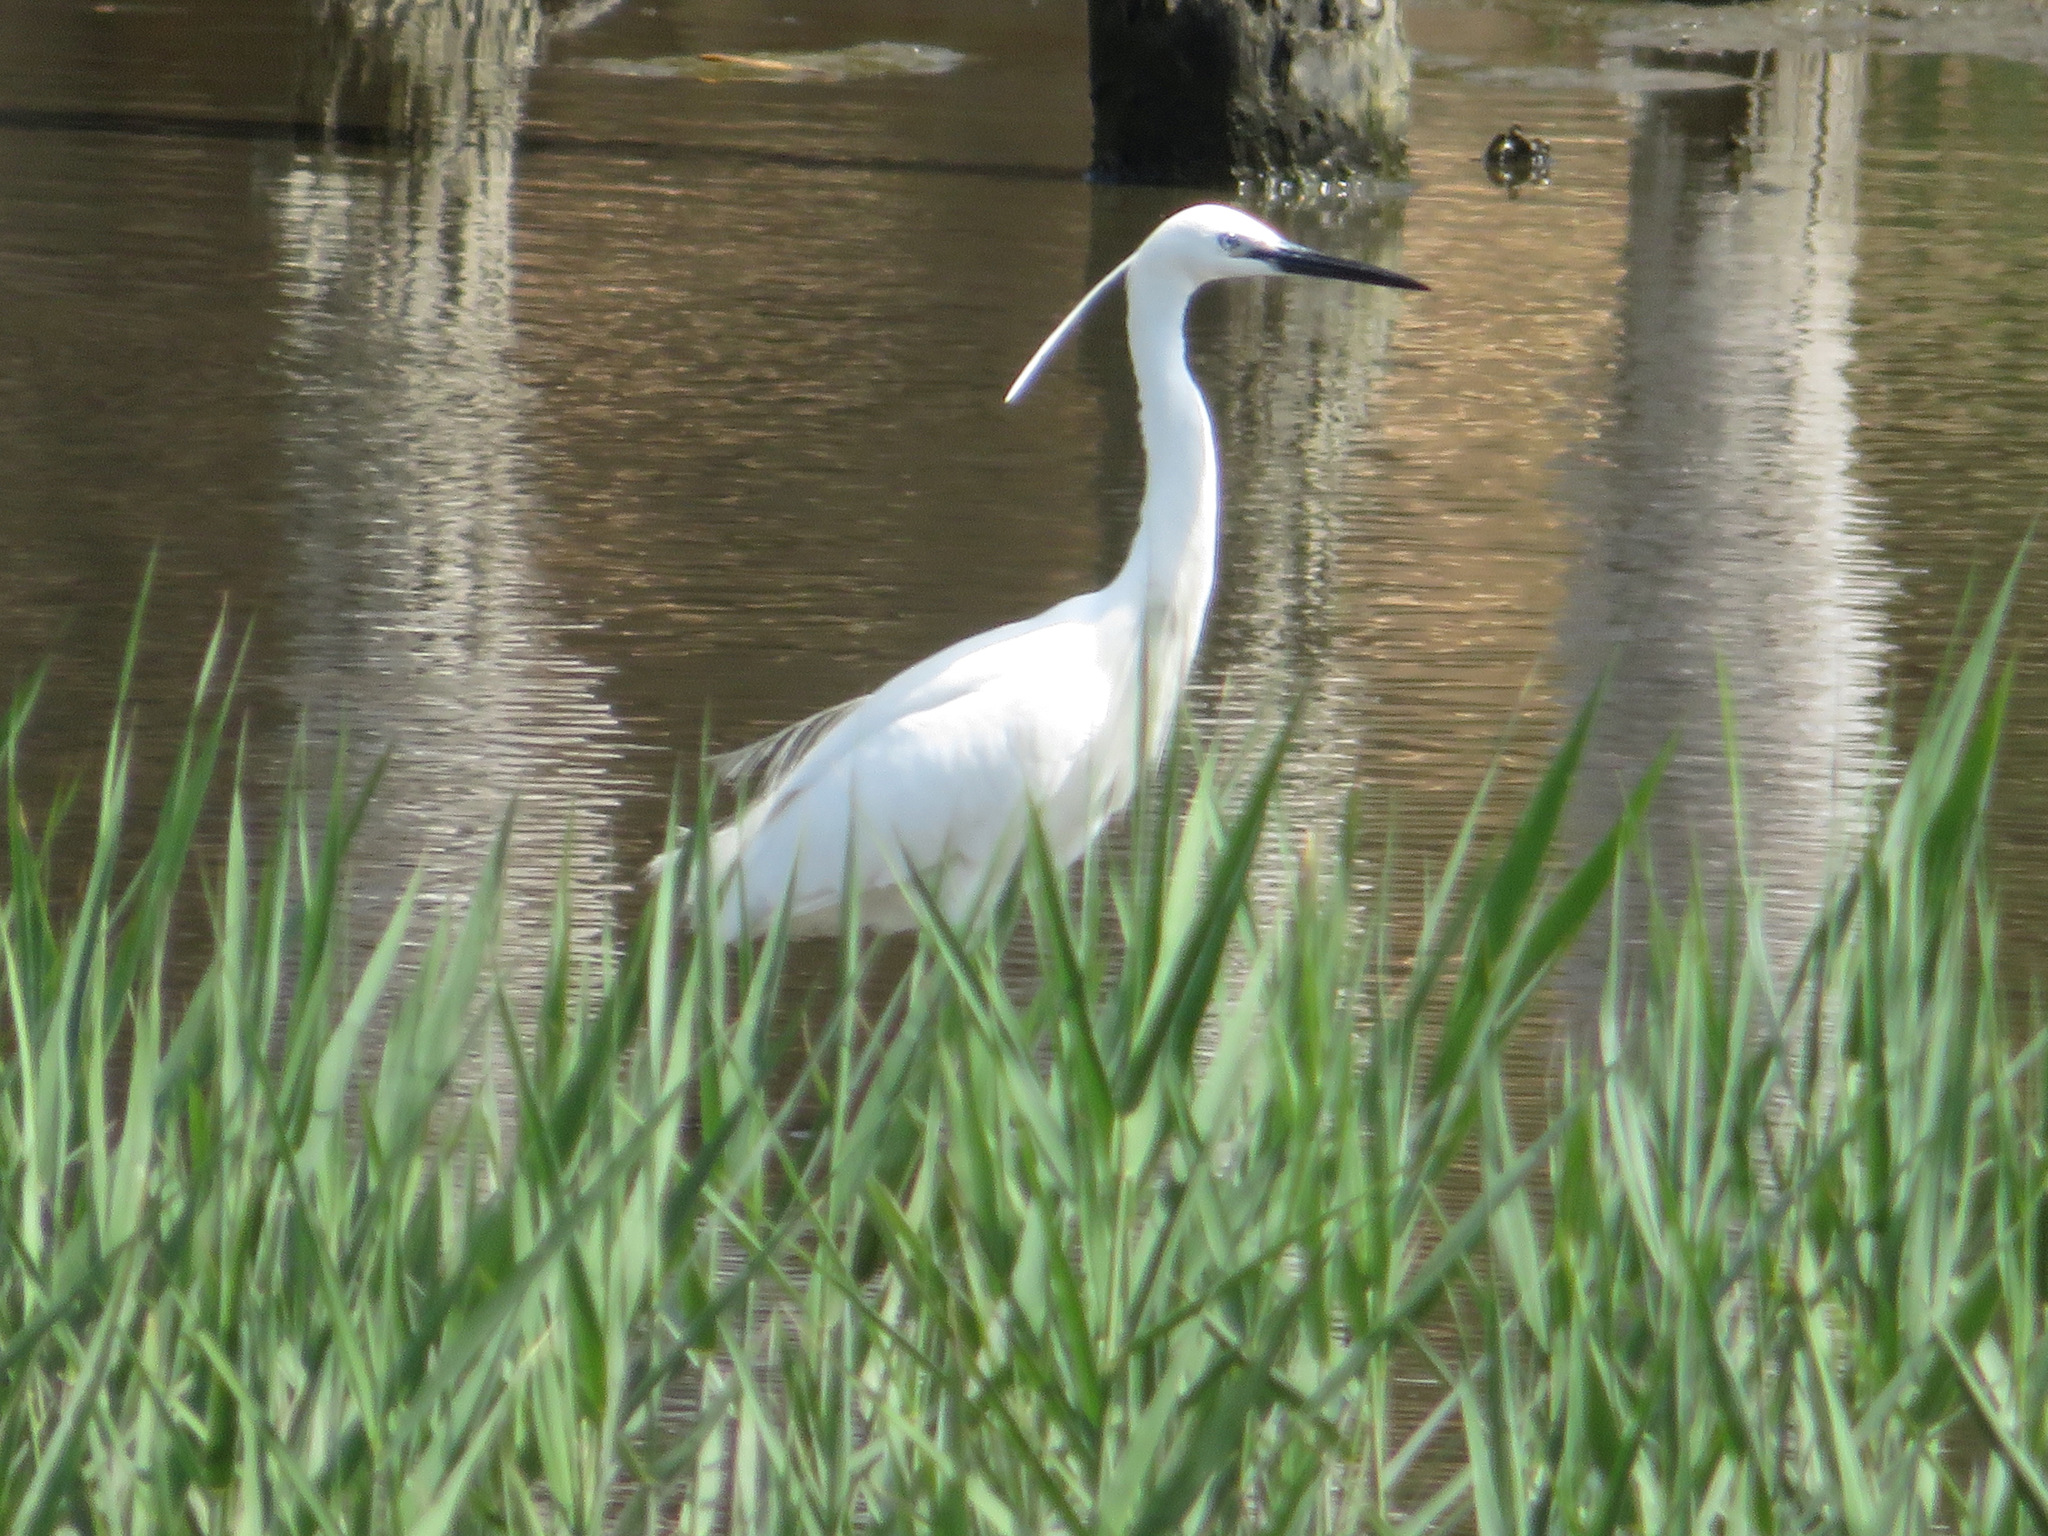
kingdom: Animalia
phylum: Chordata
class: Aves
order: Pelecaniformes
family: Ardeidae
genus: Egretta
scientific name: Egretta garzetta
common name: Little egret
